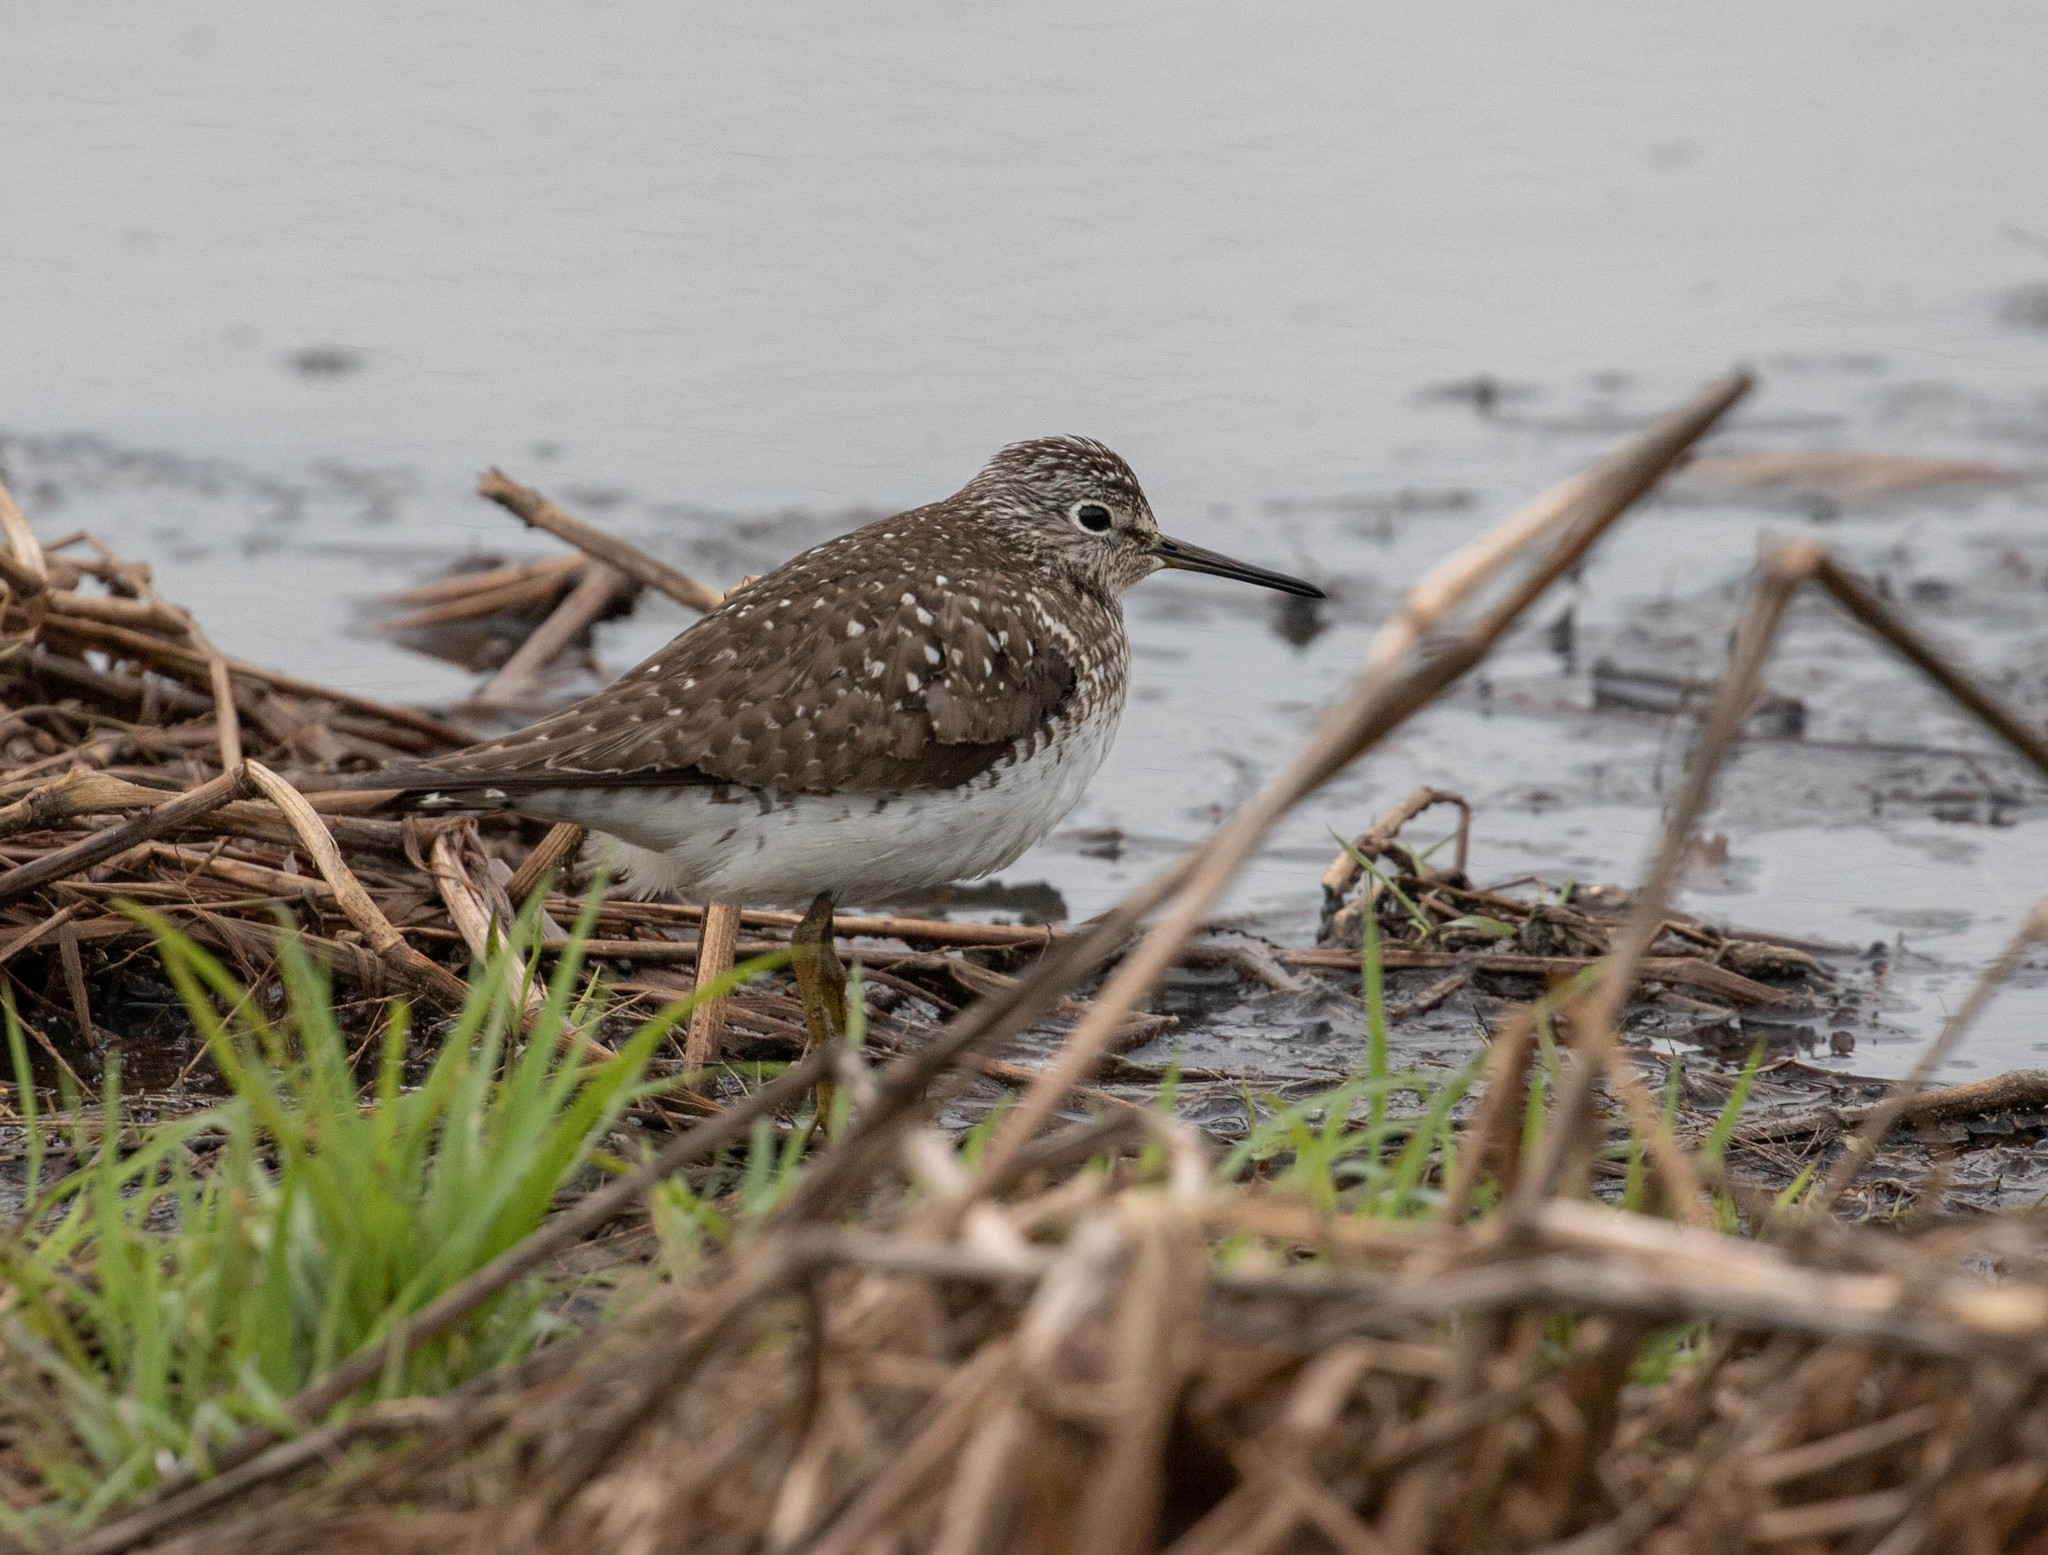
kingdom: Animalia
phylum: Chordata
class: Aves
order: Charadriiformes
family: Scolopacidae
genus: Tringa
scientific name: Tringa solitaria
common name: Solitary sandpiper
